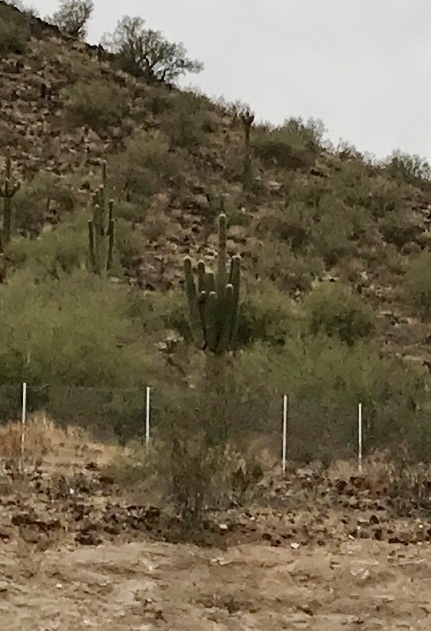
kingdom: Plantae
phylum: Tracheophyta
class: Magnoliopsida
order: Caryophyllales
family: Cactaceae
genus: Carnegiea
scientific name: Carnegiea gigantea
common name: Saguaro
